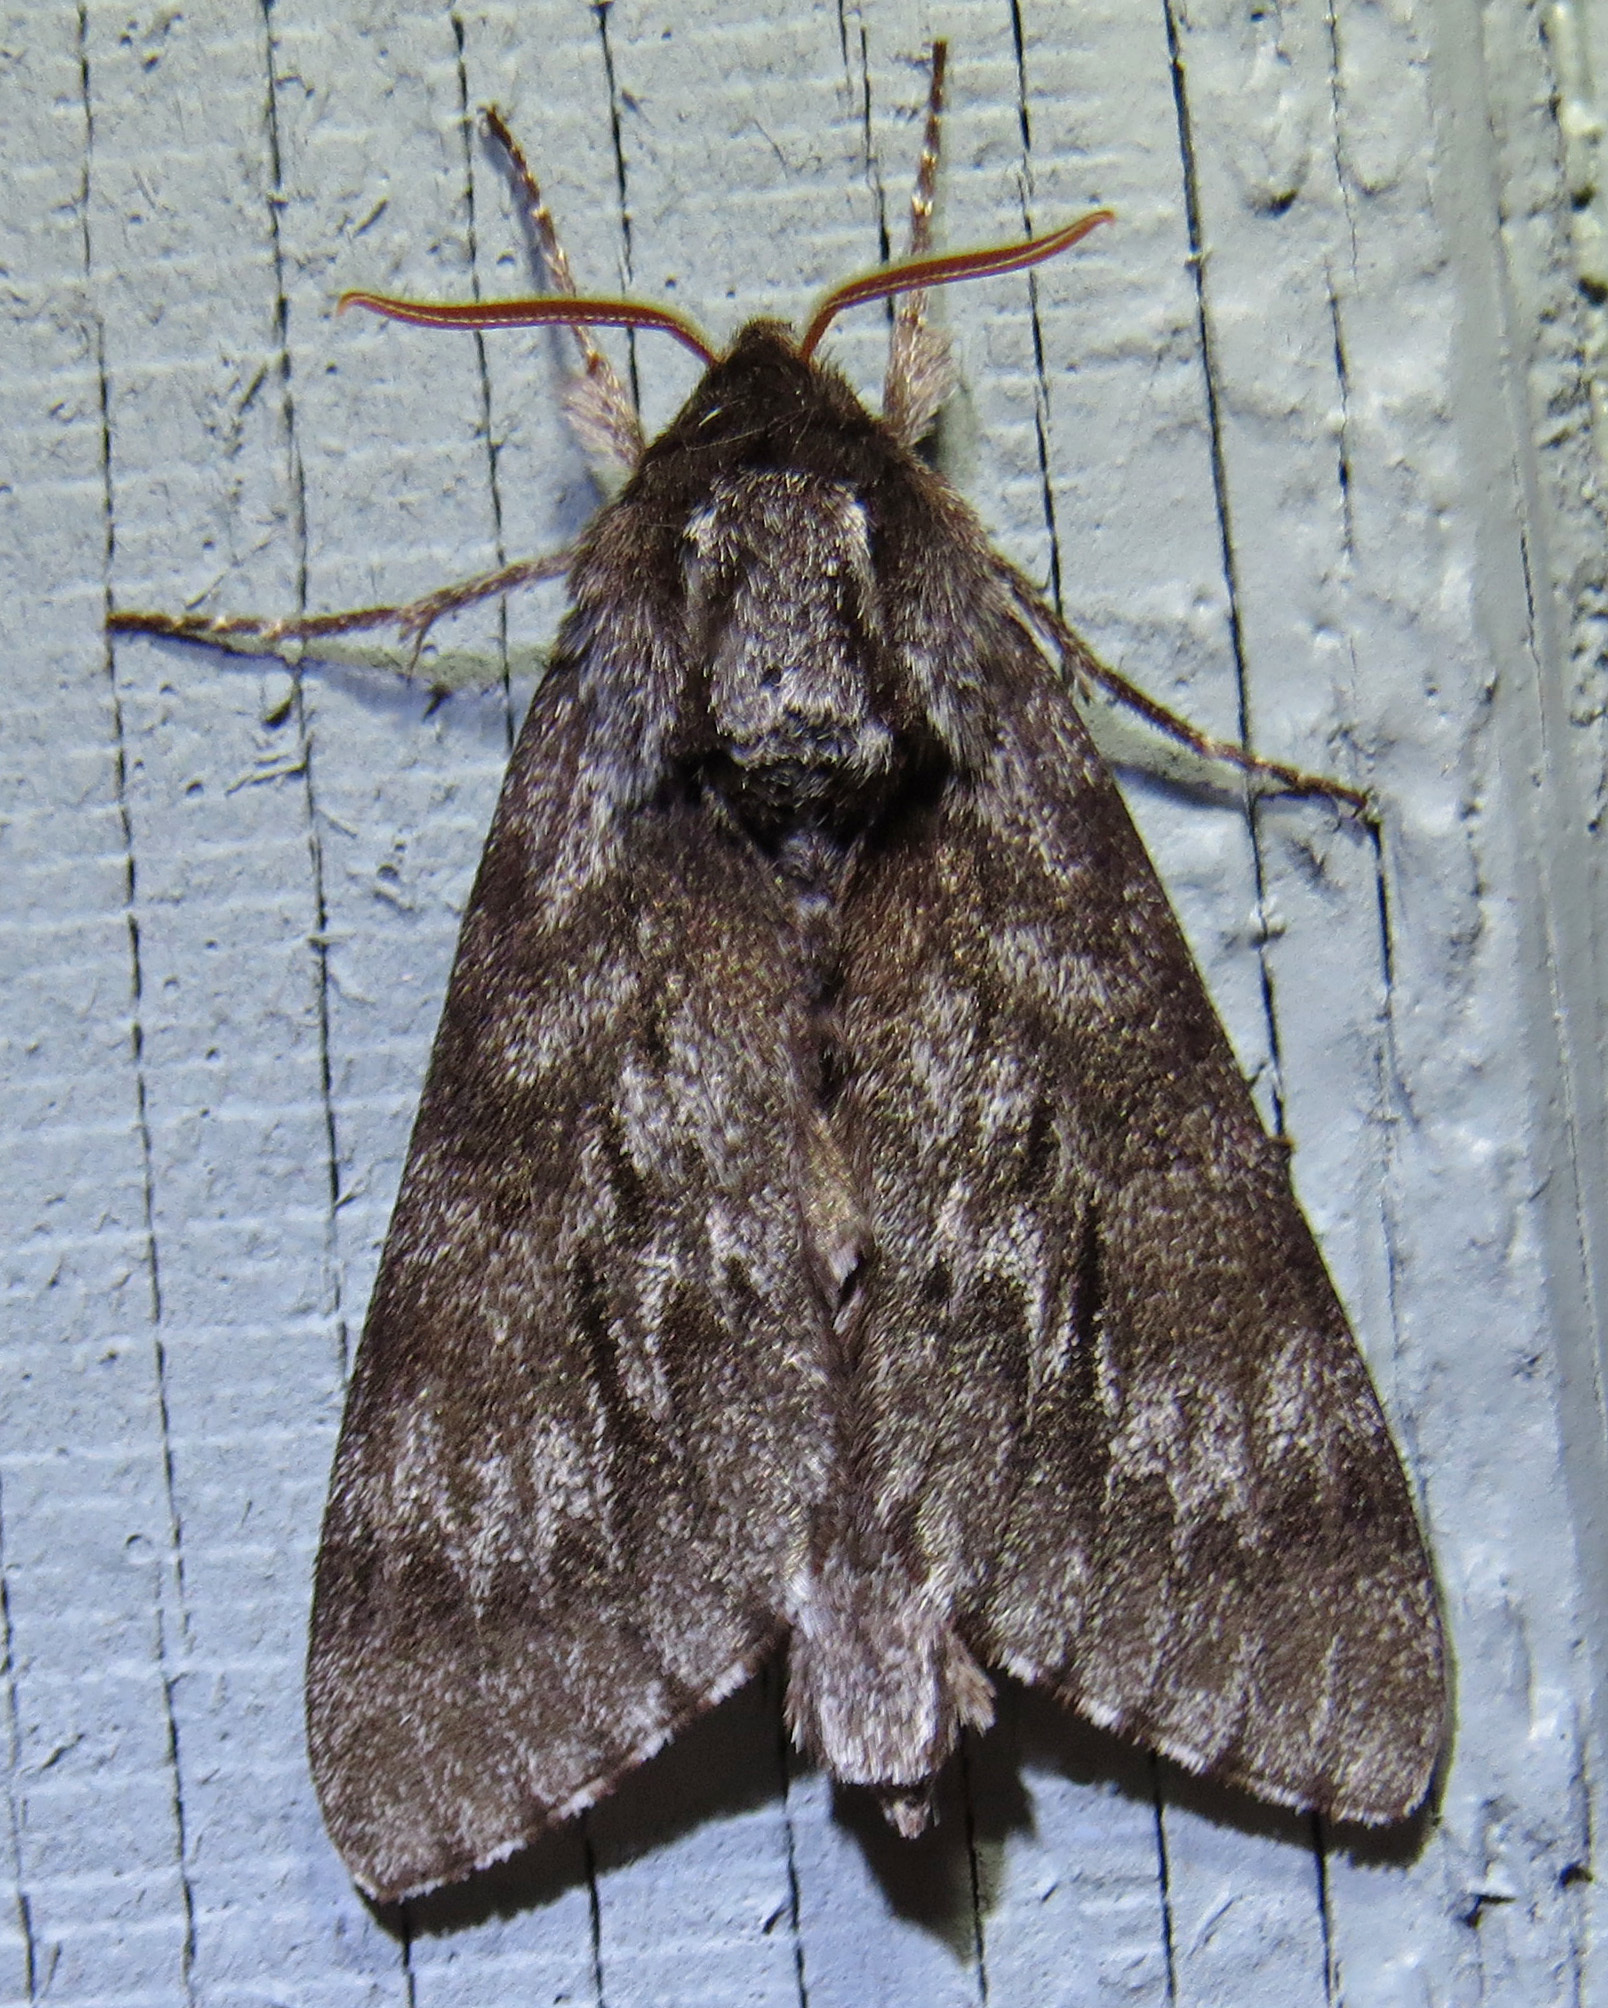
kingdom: Animalia
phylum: Arthropoda
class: Insecta
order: Lepidoptera
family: Sphingidae
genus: Lapara
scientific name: Lapara bombycoides
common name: Northern pine sphinx
